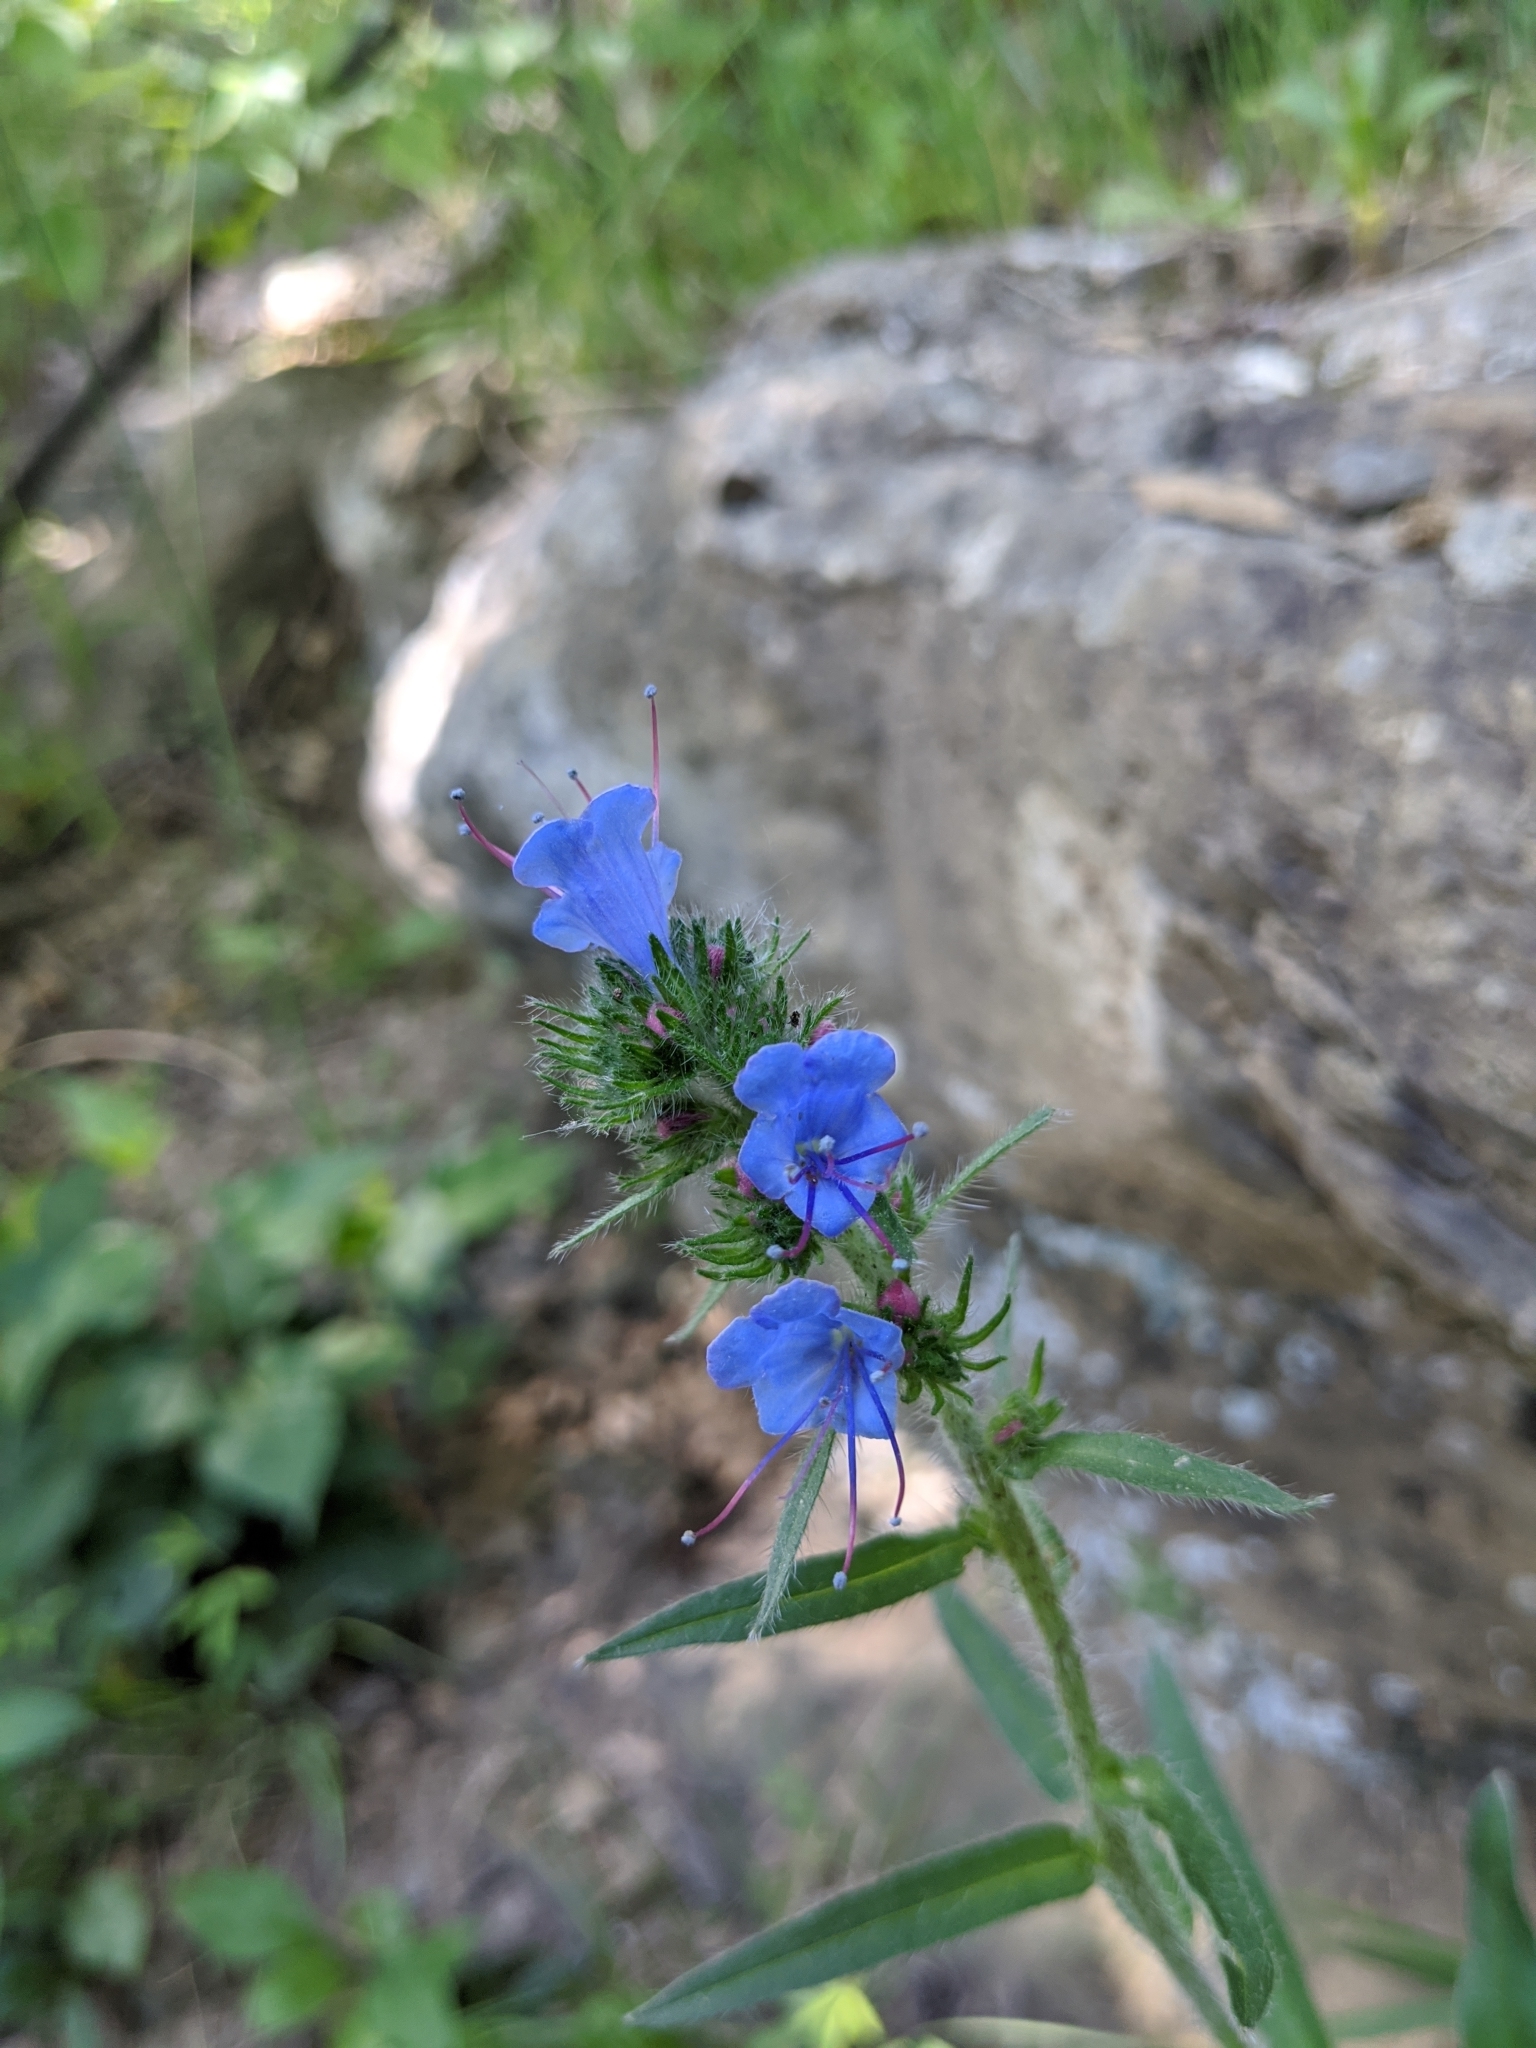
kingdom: Plantae
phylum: Tracheophyta
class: Magnoliopsida
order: Boraginales
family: Boraginaceae
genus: Echium
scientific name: Echium vulgare
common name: Common viper's bugloss
